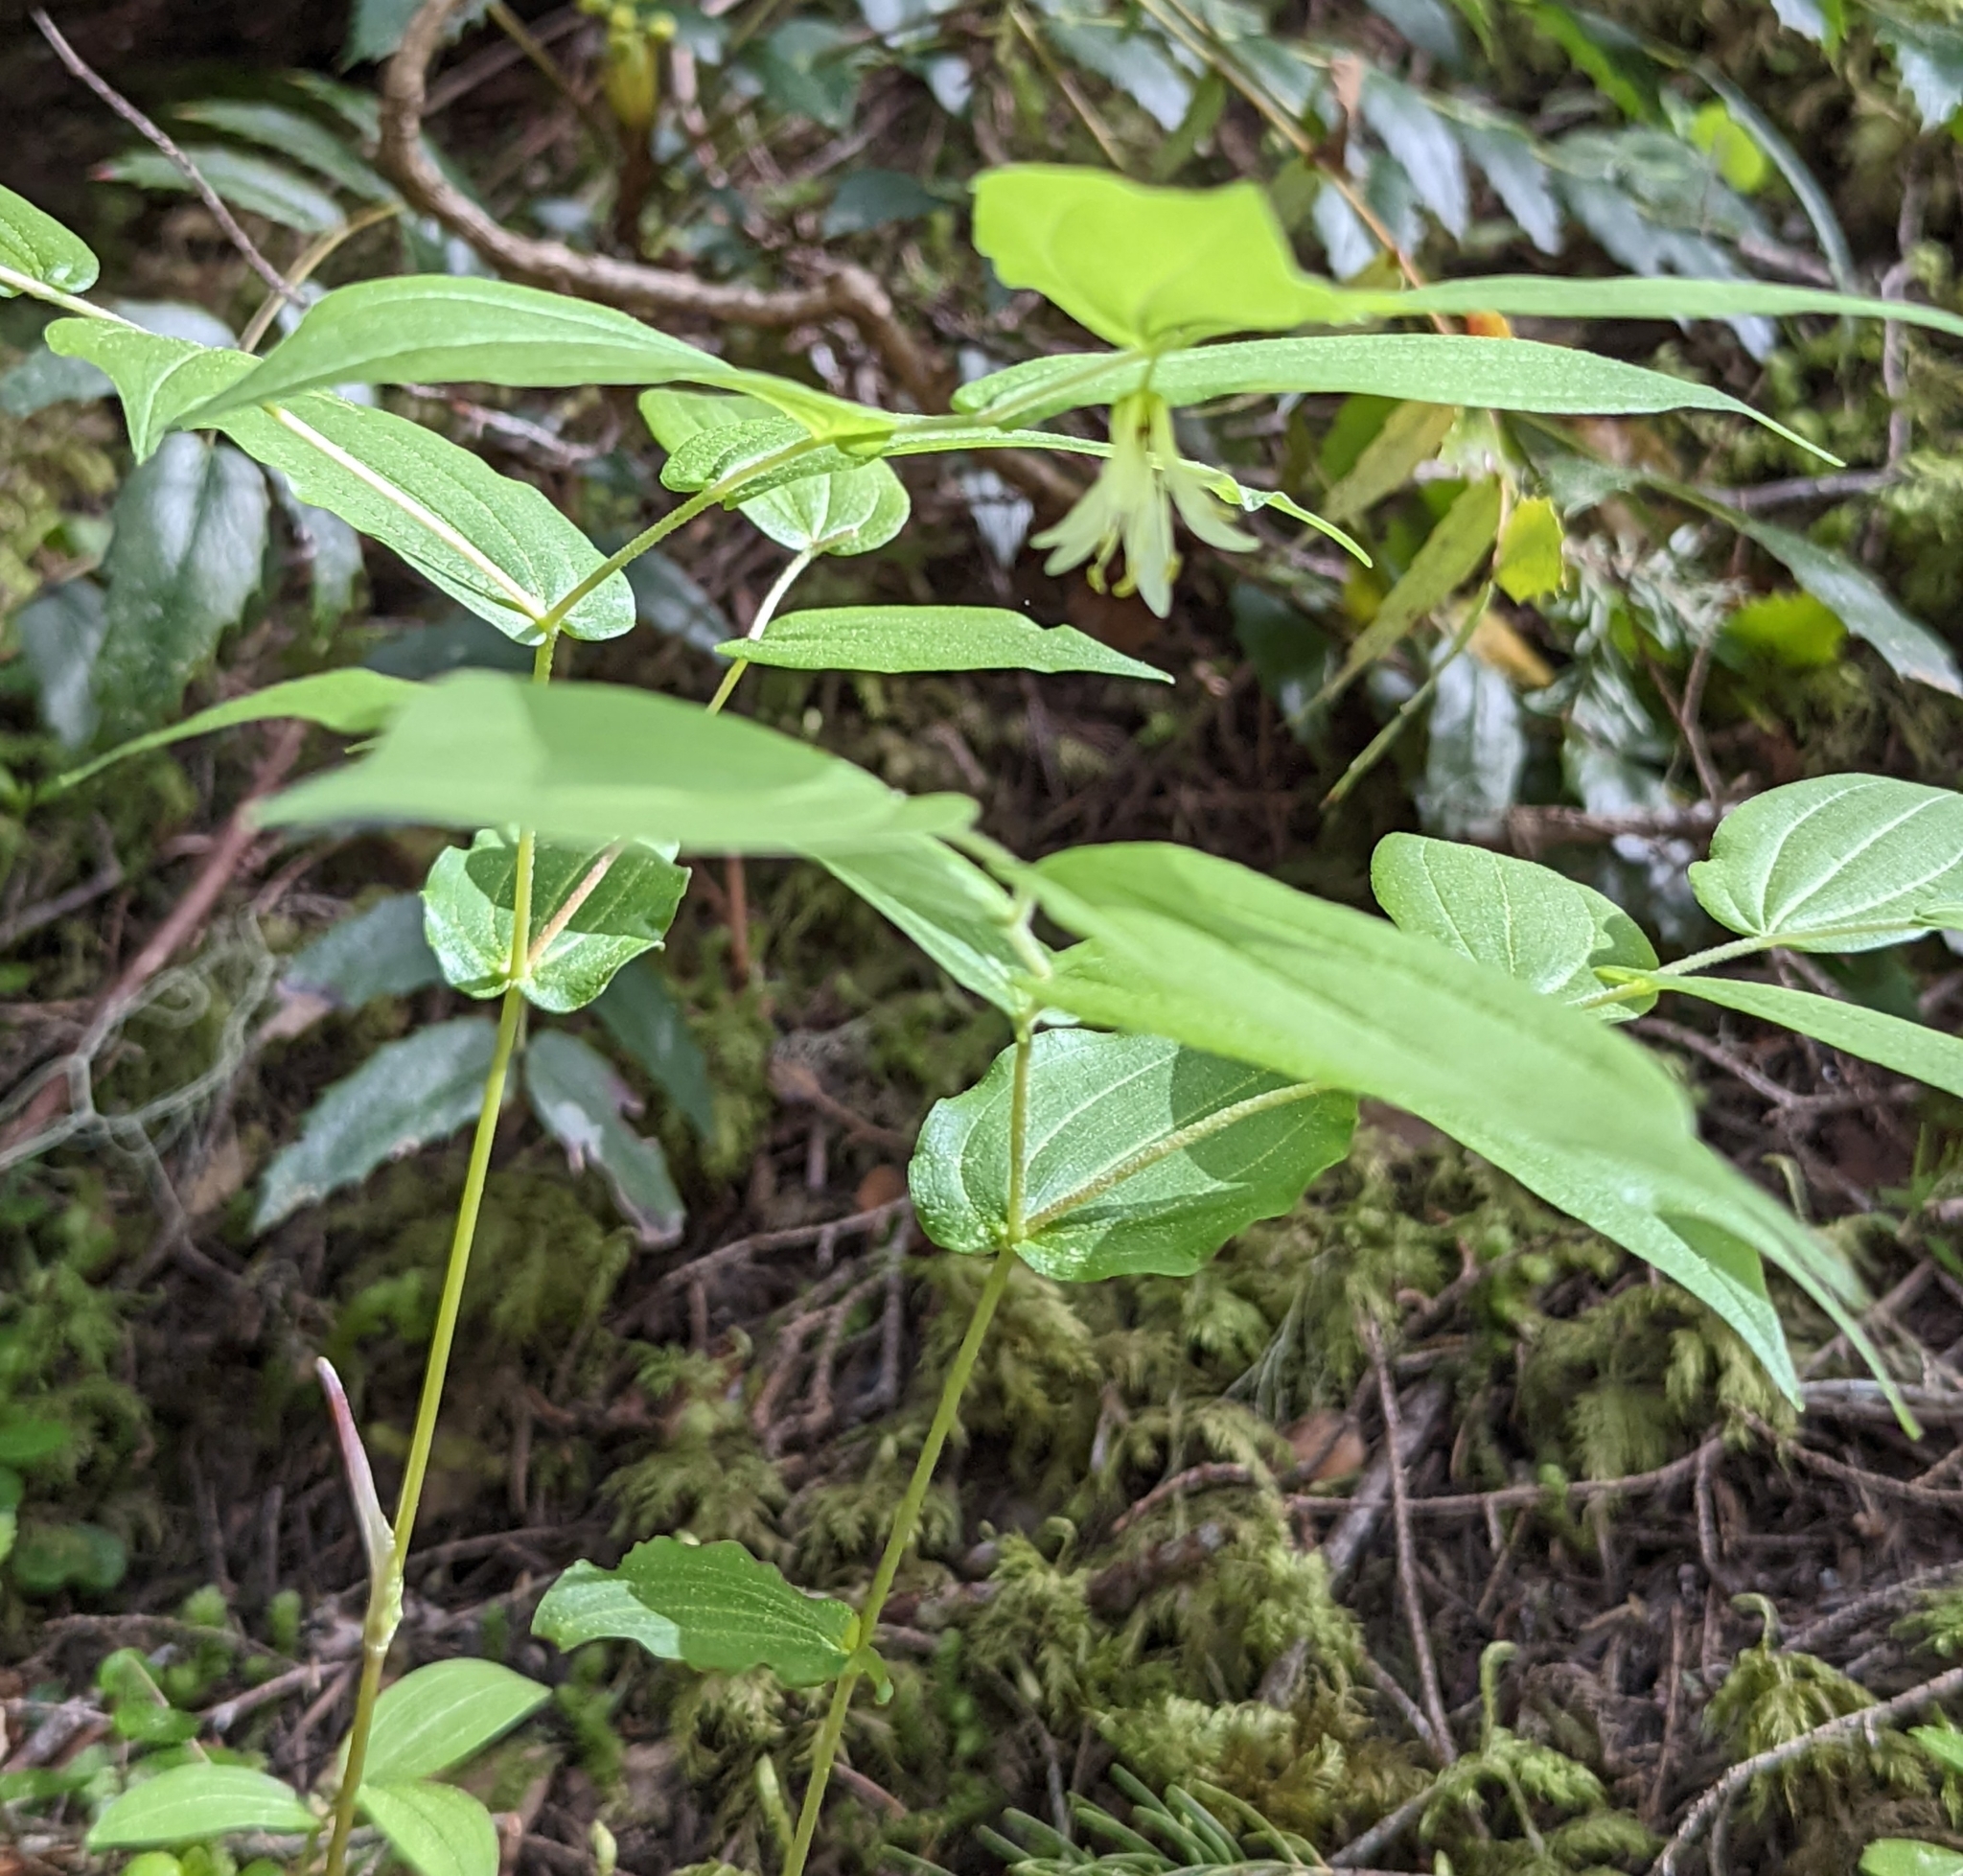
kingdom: Plantae
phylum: Tracheophyta
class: Liliopsida
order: Liliales
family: Liliaceae
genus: Prosartes
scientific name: Prosartes hookeri
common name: Fairy-bells
